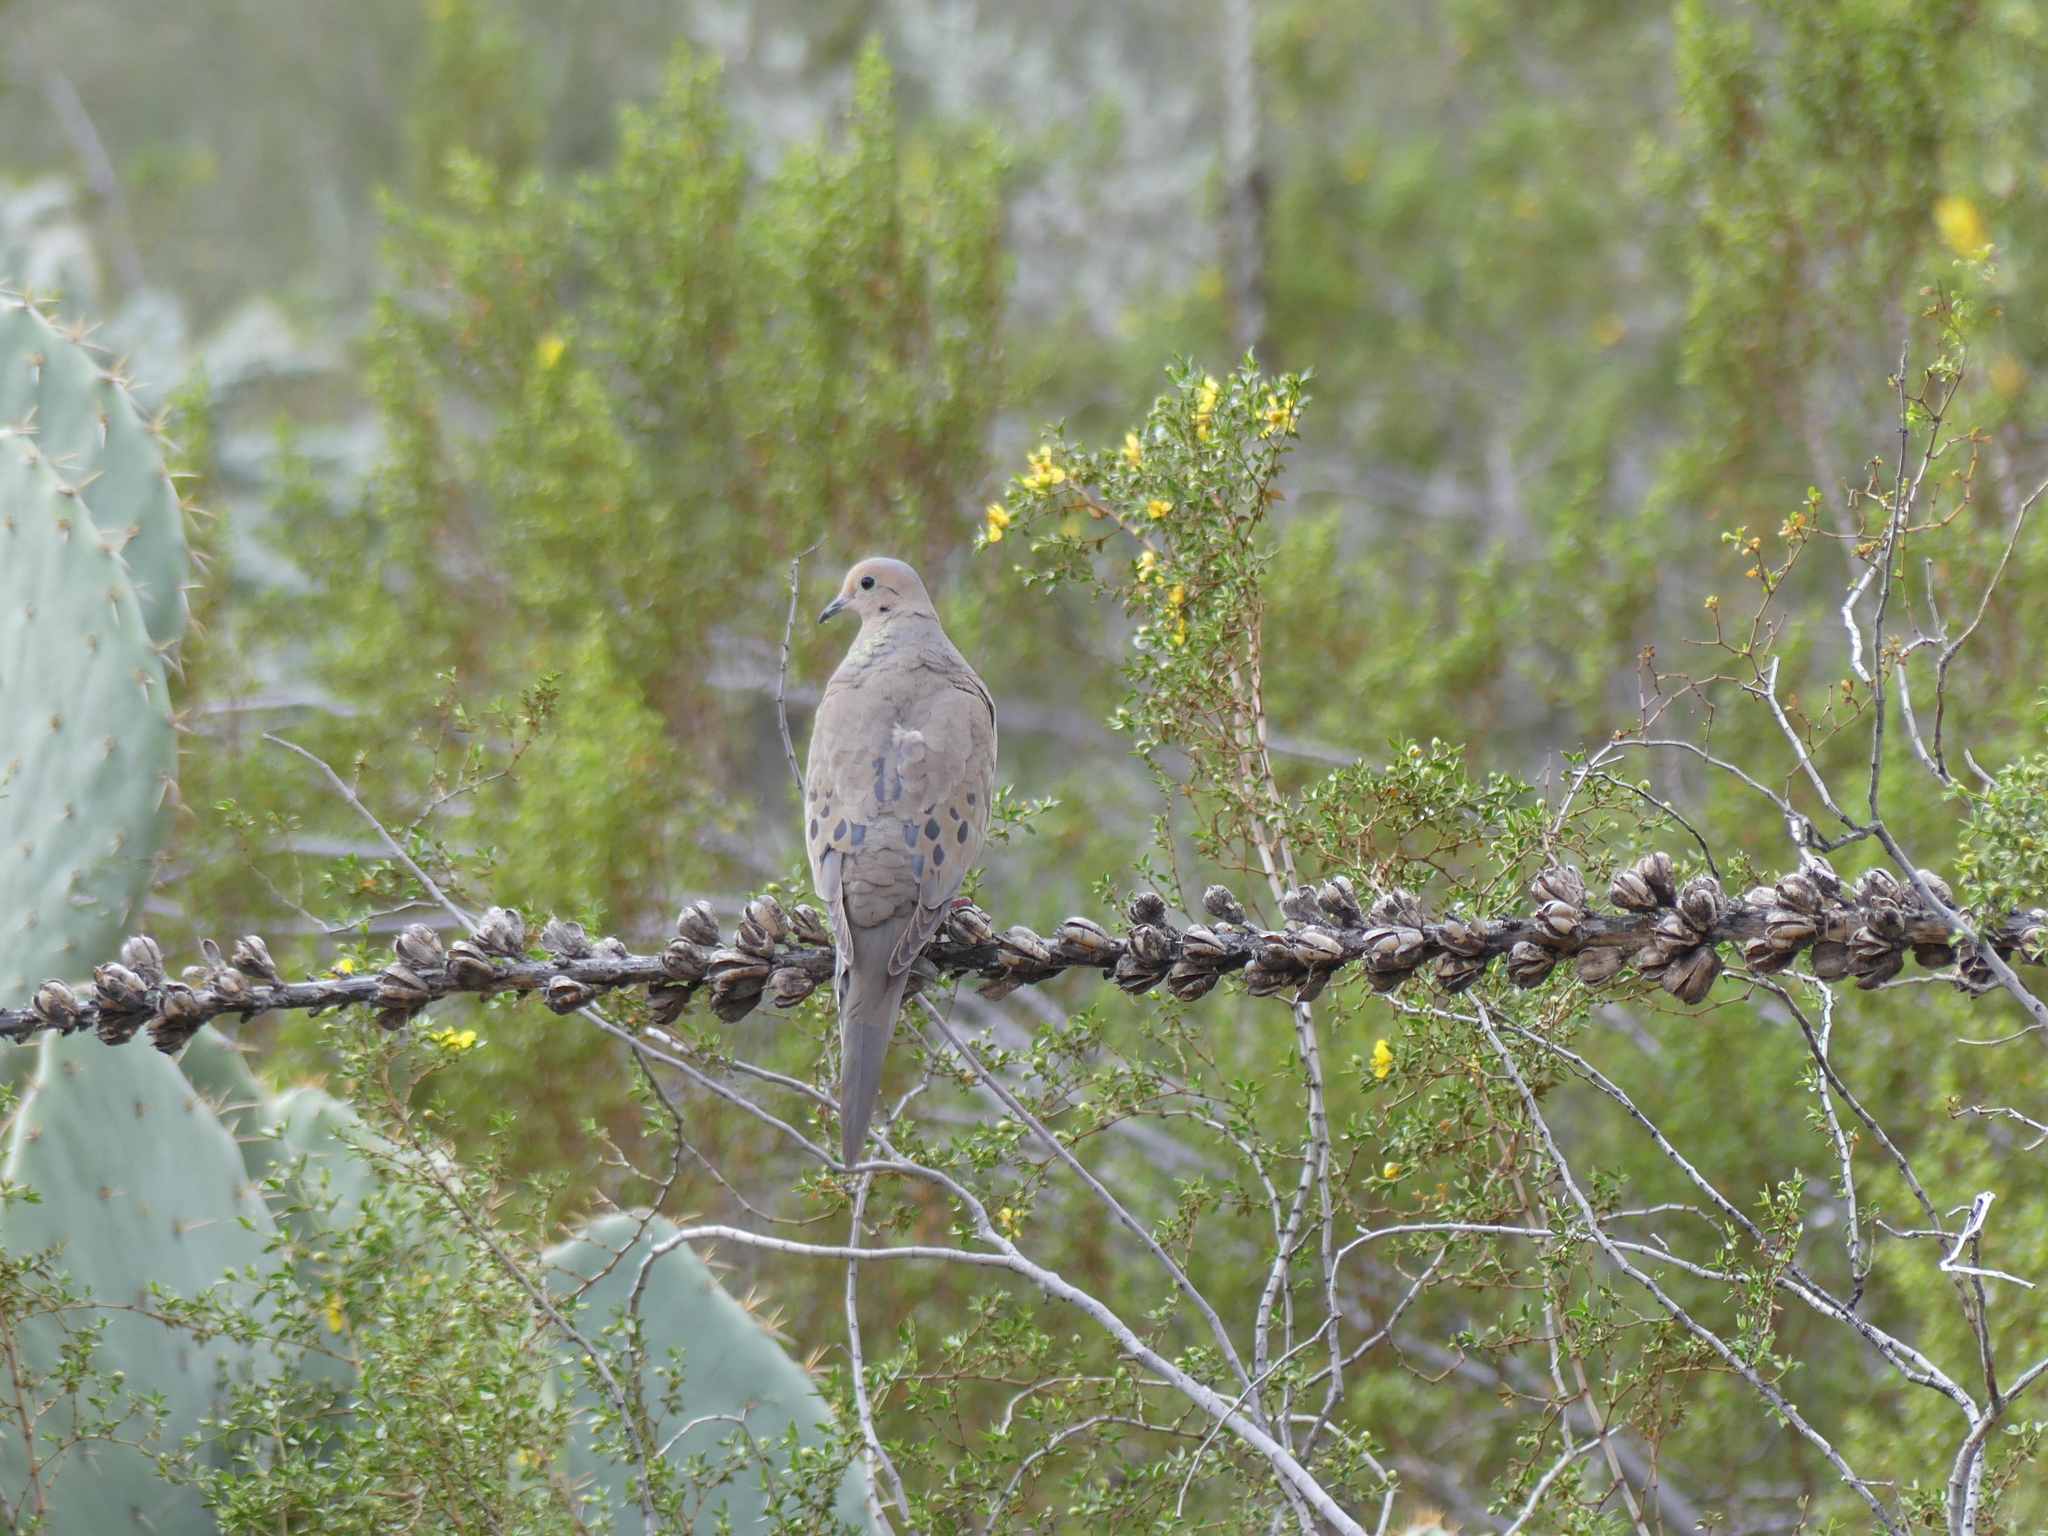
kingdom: Animalia
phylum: Chordata
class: Aves
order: Columbiformes
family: Columbidae
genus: Zenaida
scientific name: Zenaida macroura
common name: Mourning dove
